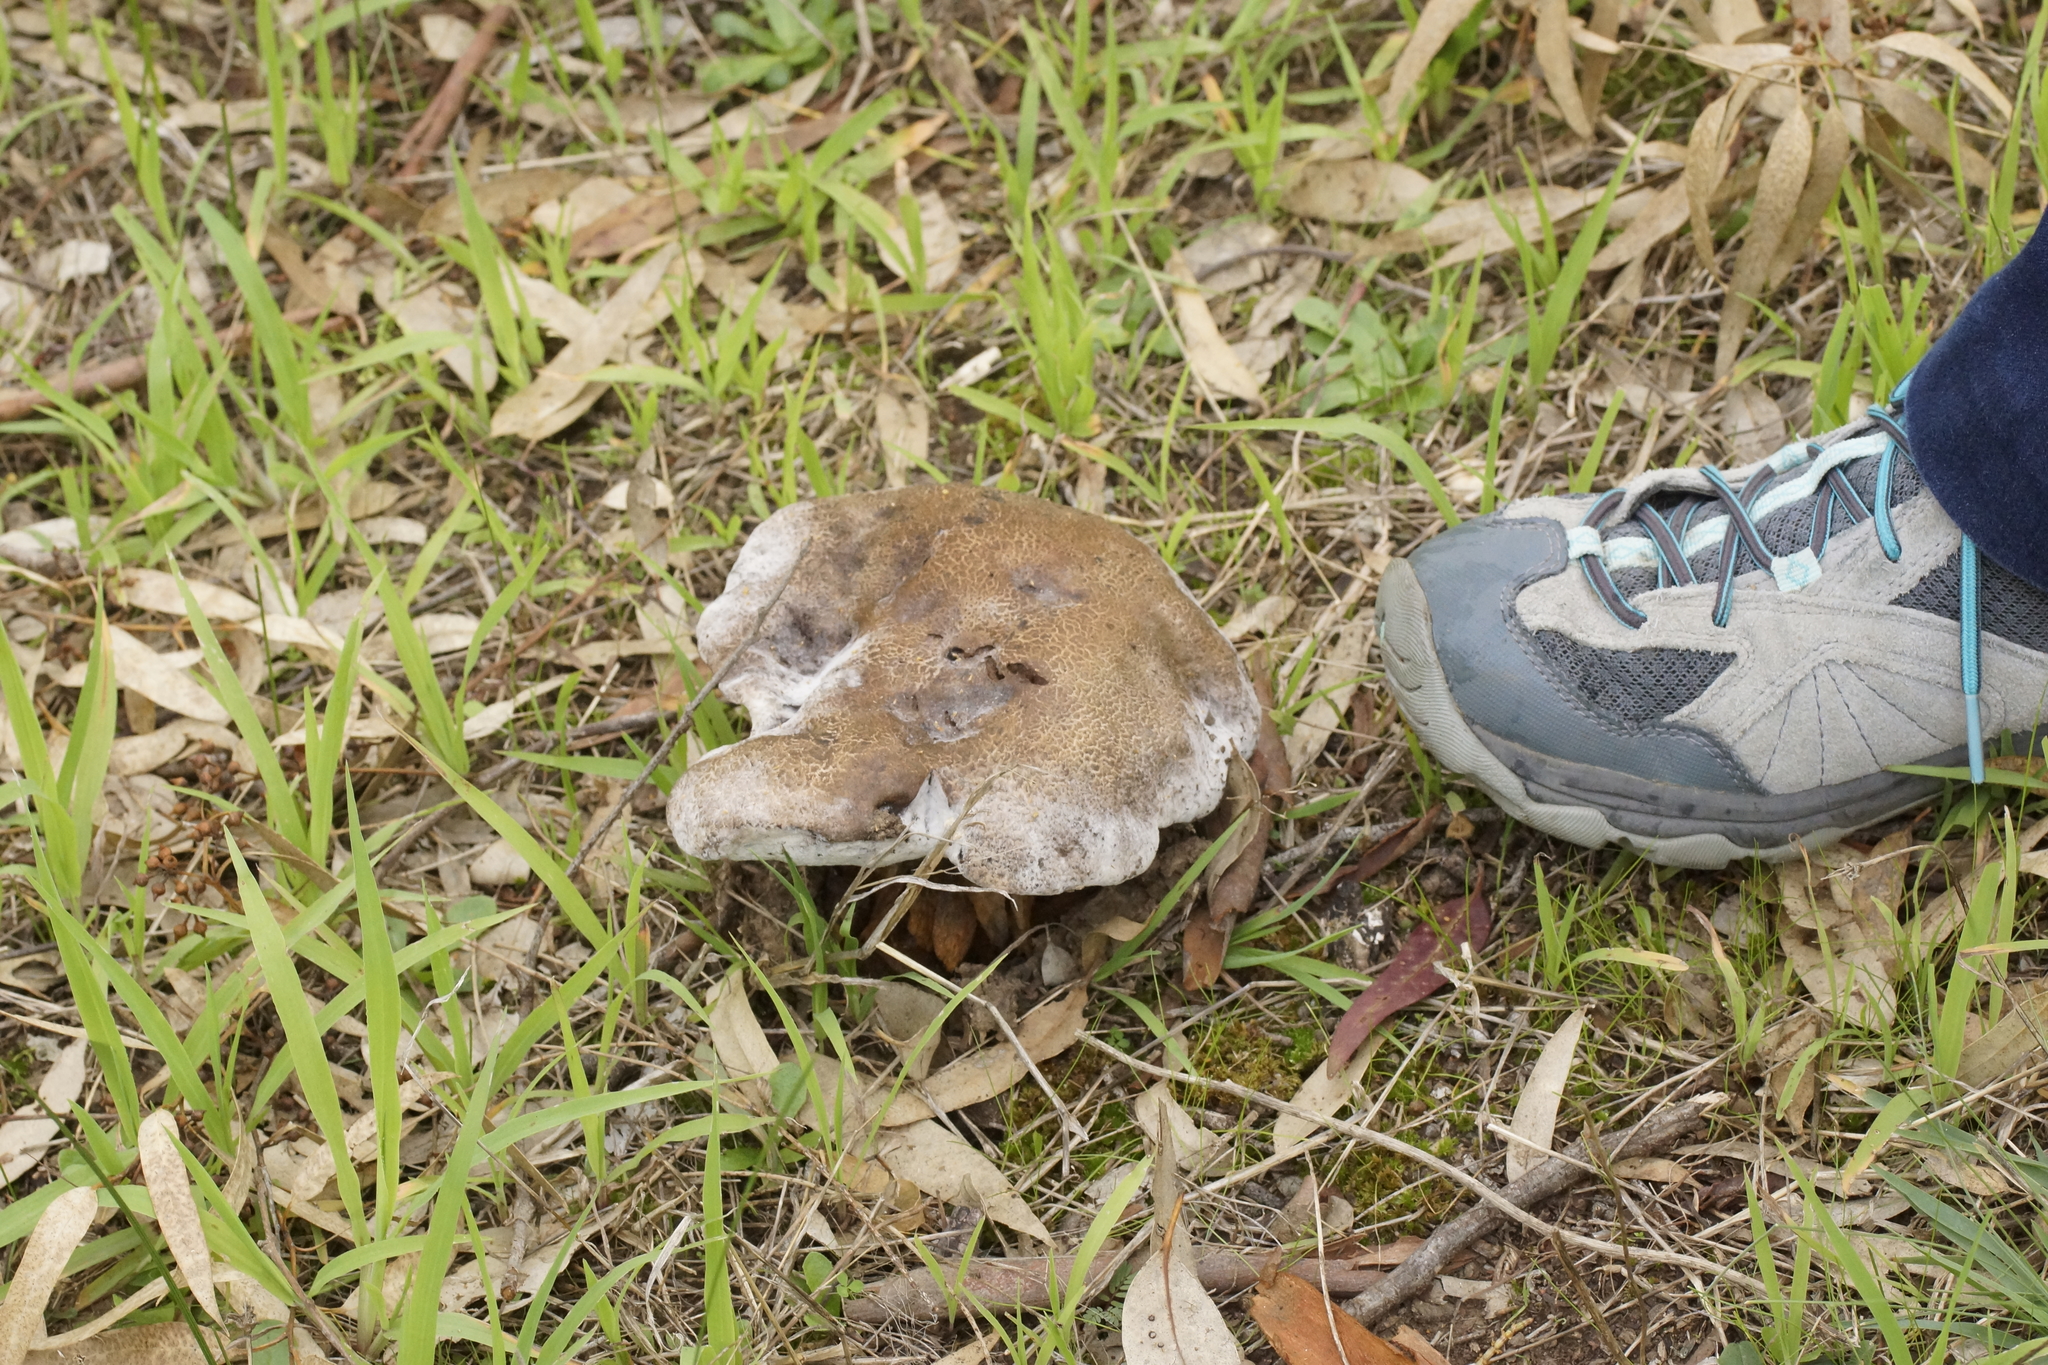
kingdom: Fungi
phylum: Basidiomycota
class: Agaricomycetes
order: Boletales
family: Boletinellaceae
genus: Phlebopus
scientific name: Phlebopus marginatus
